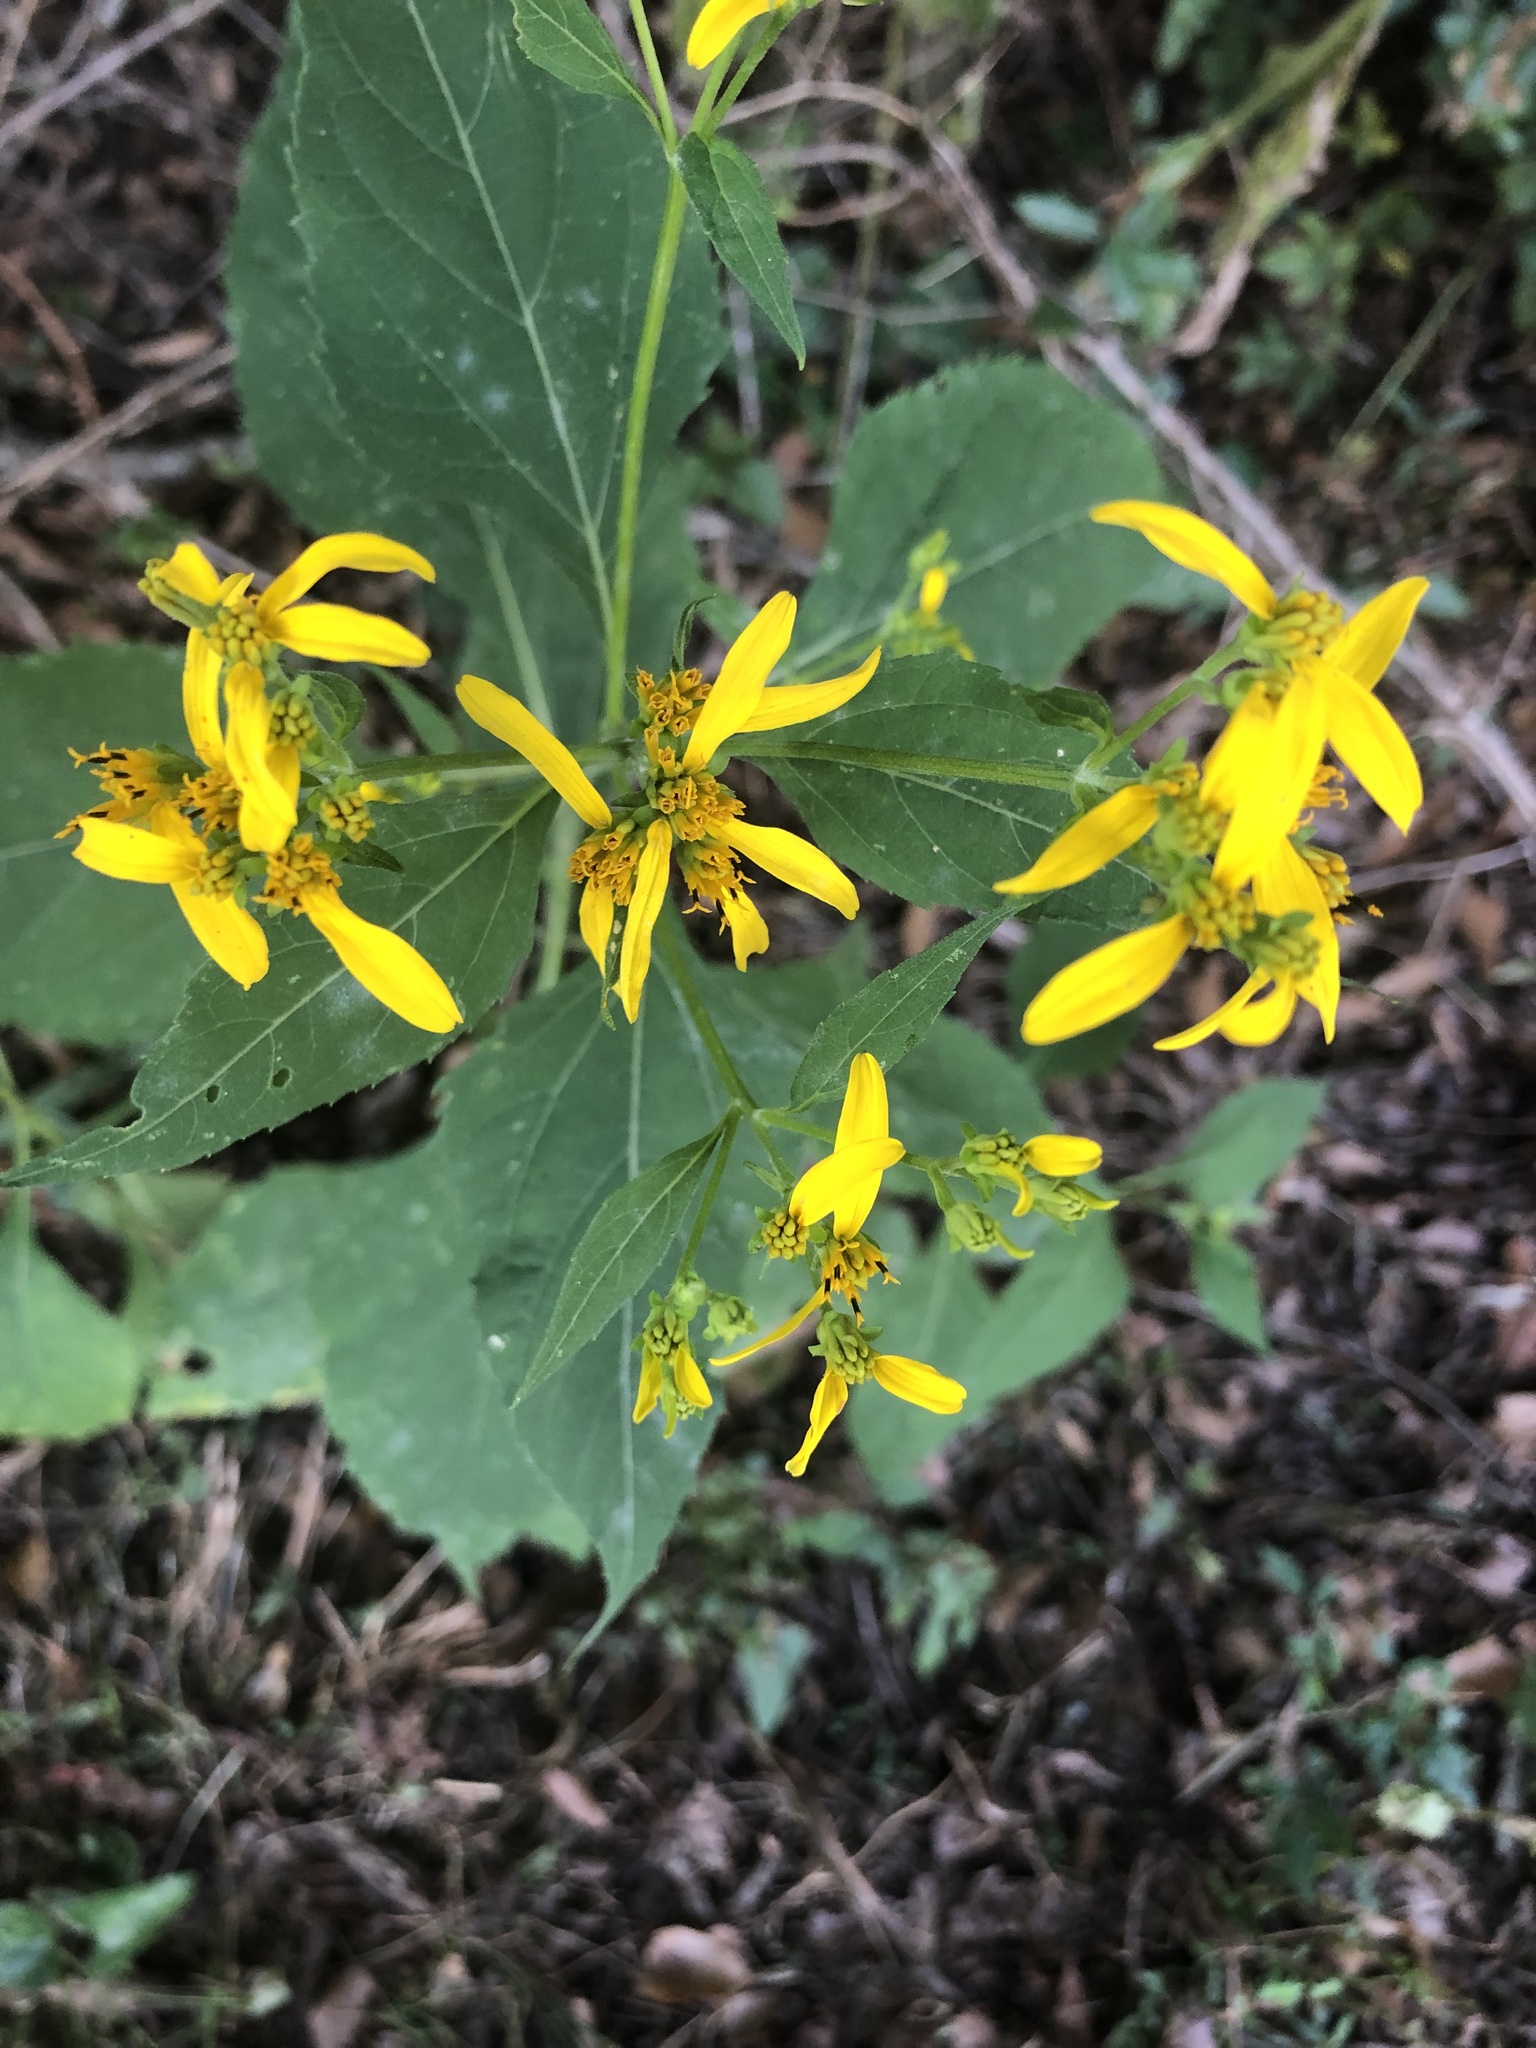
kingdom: Plantae
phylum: Tracheophyta
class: Magnoliopsida
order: Asterales
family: Asteraceae
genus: Verbesina
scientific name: Verbesina occidentalis
